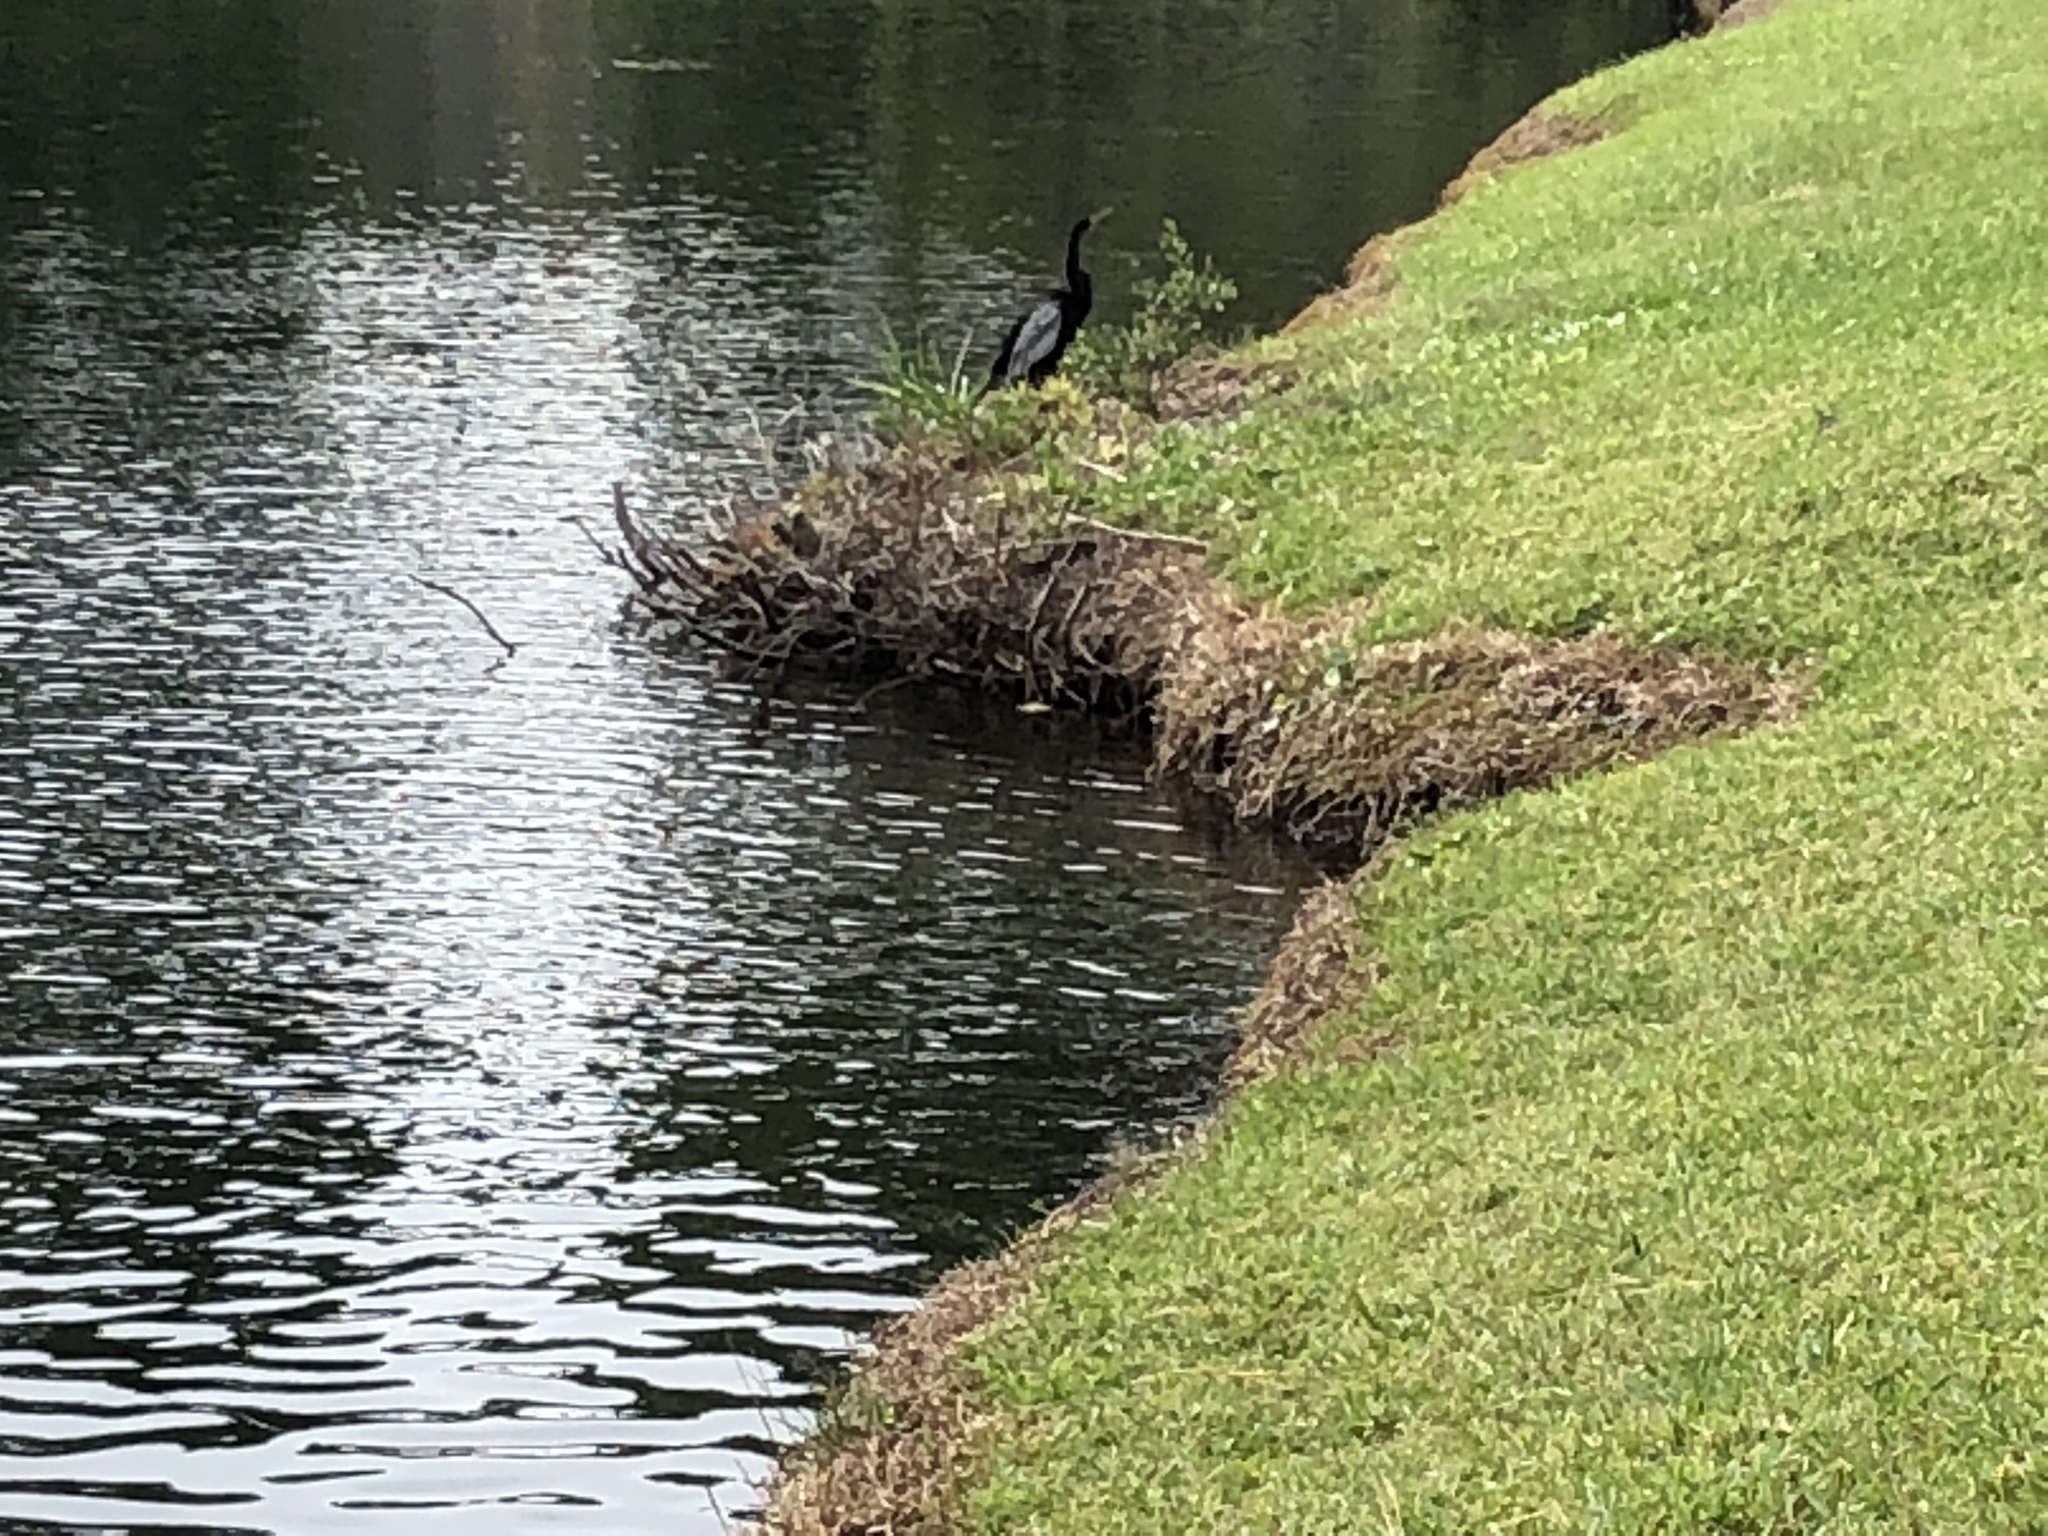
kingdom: Animalia
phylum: Chordata
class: Aves
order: Suliformes
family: Anhingidae
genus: Anhinga
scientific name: Anhinga anhinga
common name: Anhinga
